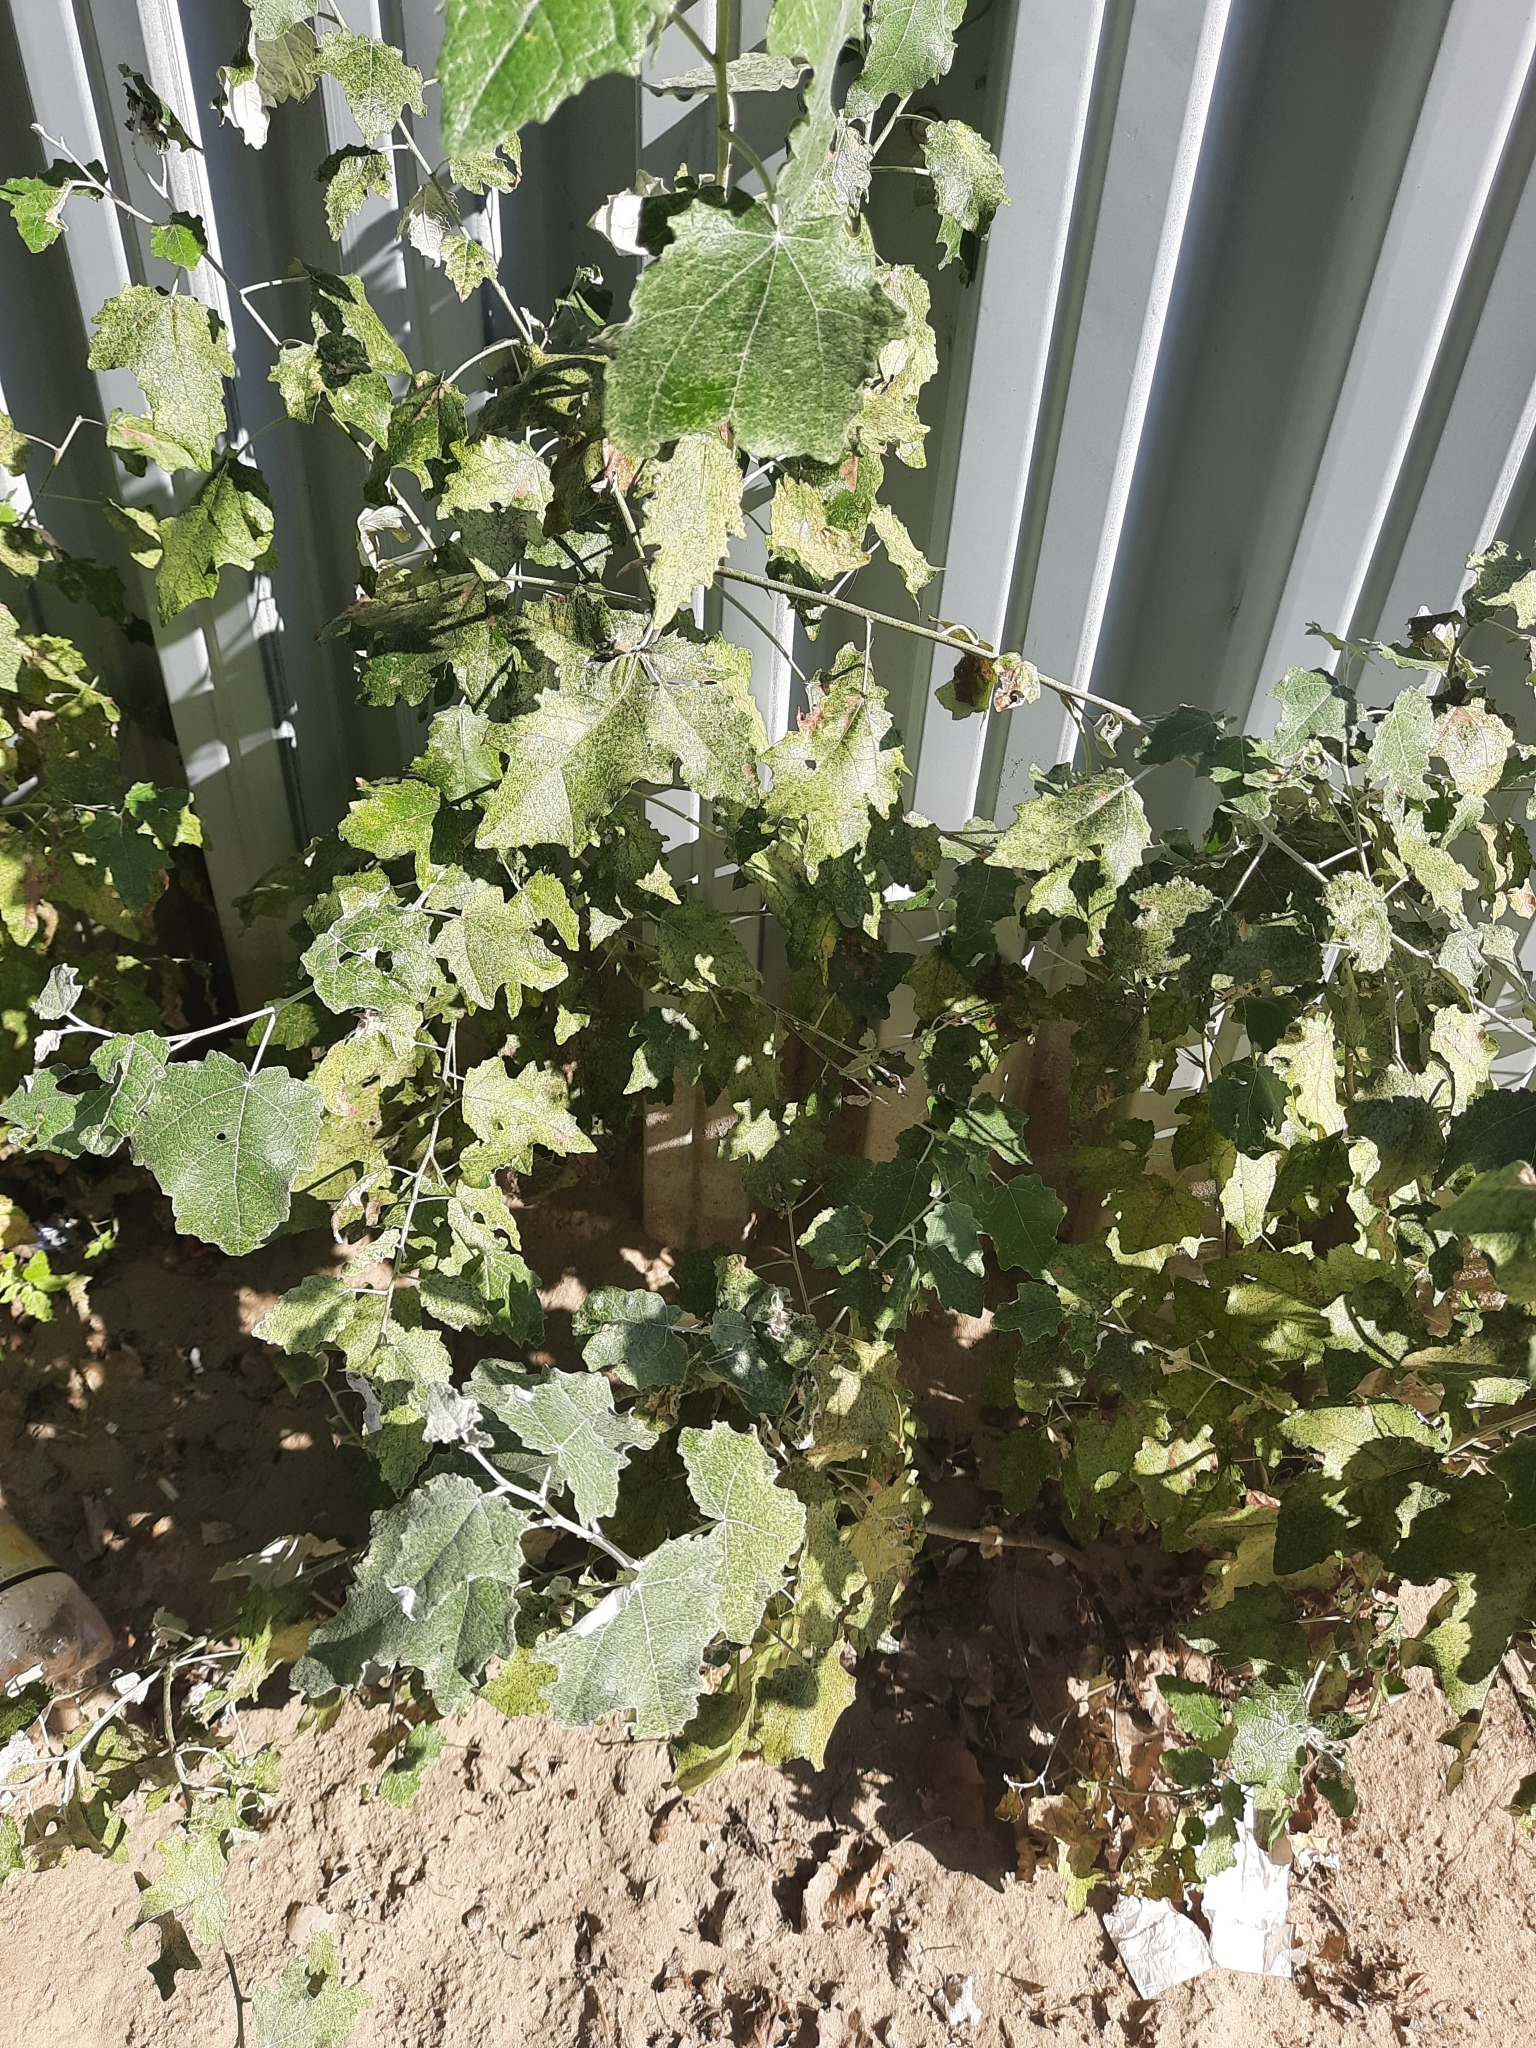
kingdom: Plantae
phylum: Tracheophyta
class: Magnoliopsida
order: Malpighiales
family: Salicaceae
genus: Populus
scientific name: Populus alba
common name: White poplar
